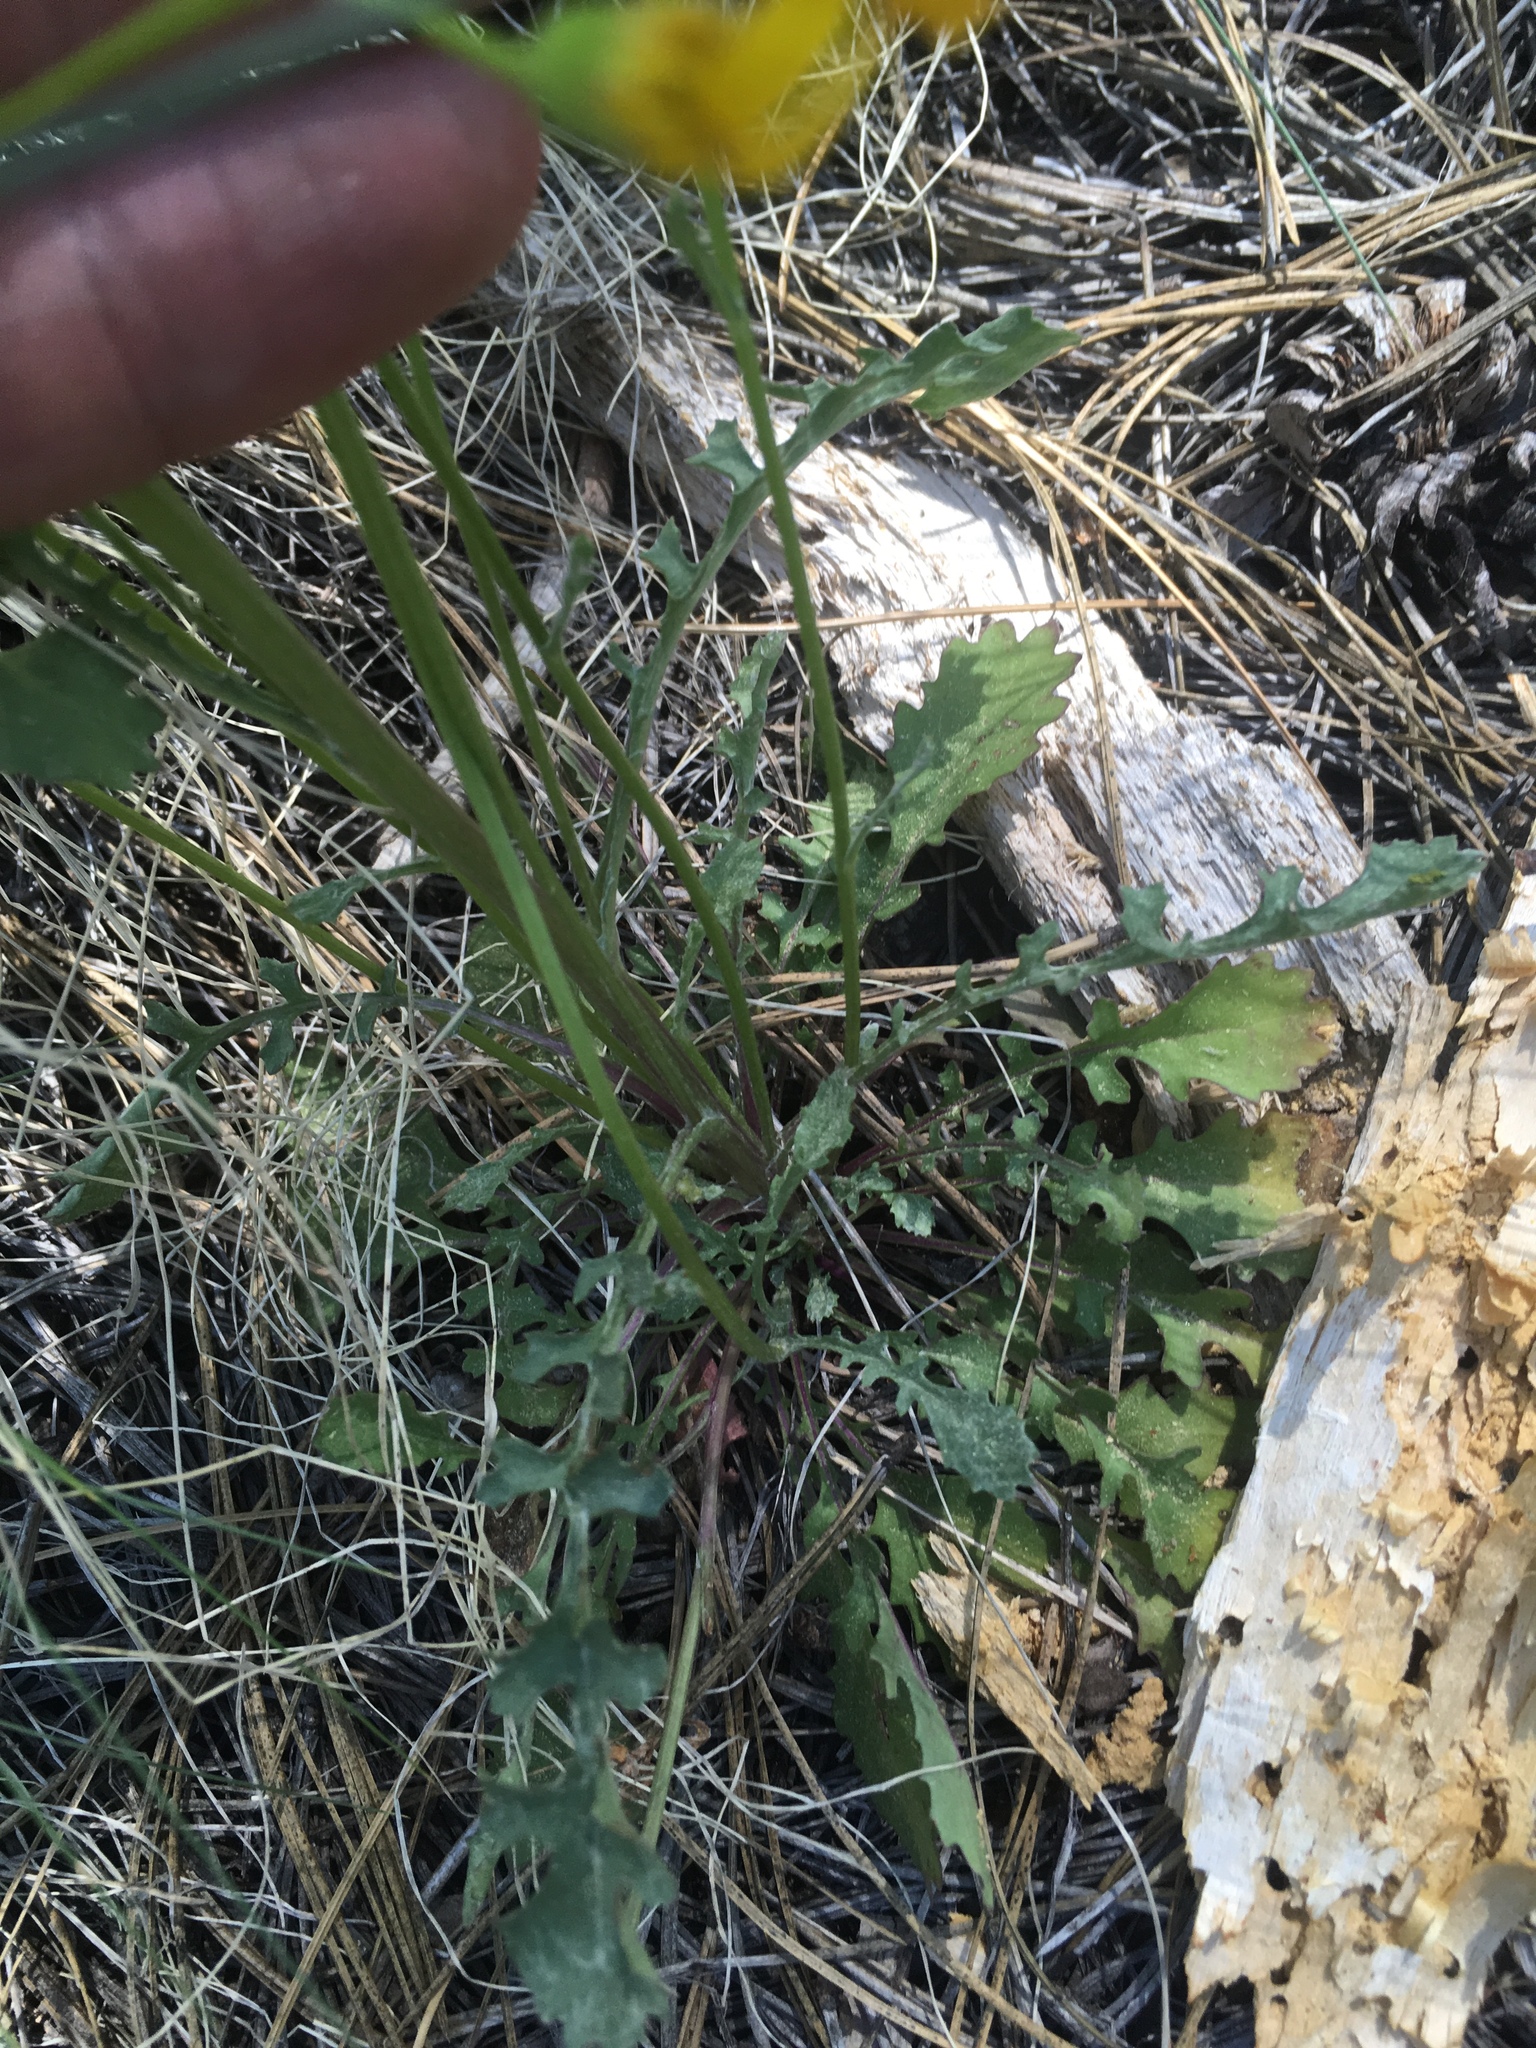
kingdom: Plantae
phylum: Tracheophyta
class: Magnoliopsida
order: Asterales
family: Asteraceae
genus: Packera
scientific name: Packera multilobata
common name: Lobe-leaf groundsel
